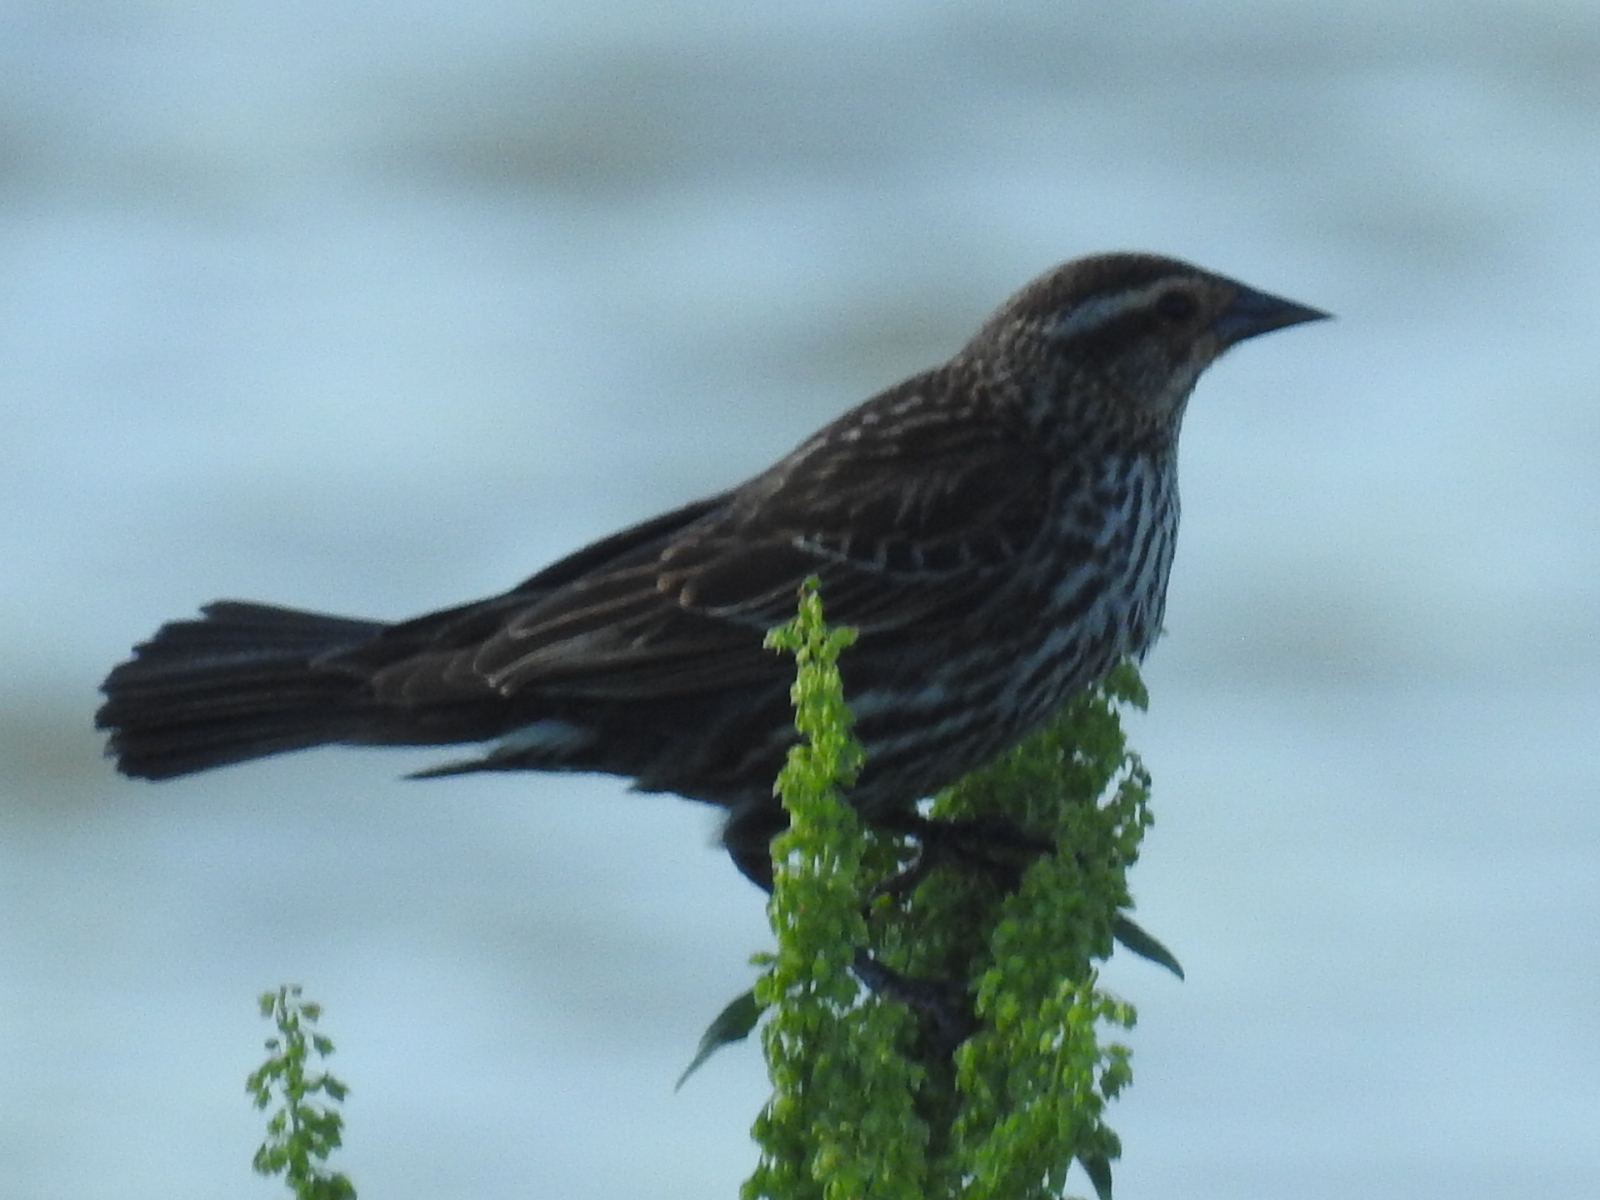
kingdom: Animalia
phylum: Chordata
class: Aves
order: Passeriformes
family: Icteridae
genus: Agelaius
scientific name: Agelaius phoeniceus
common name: Red-winged blackbird
